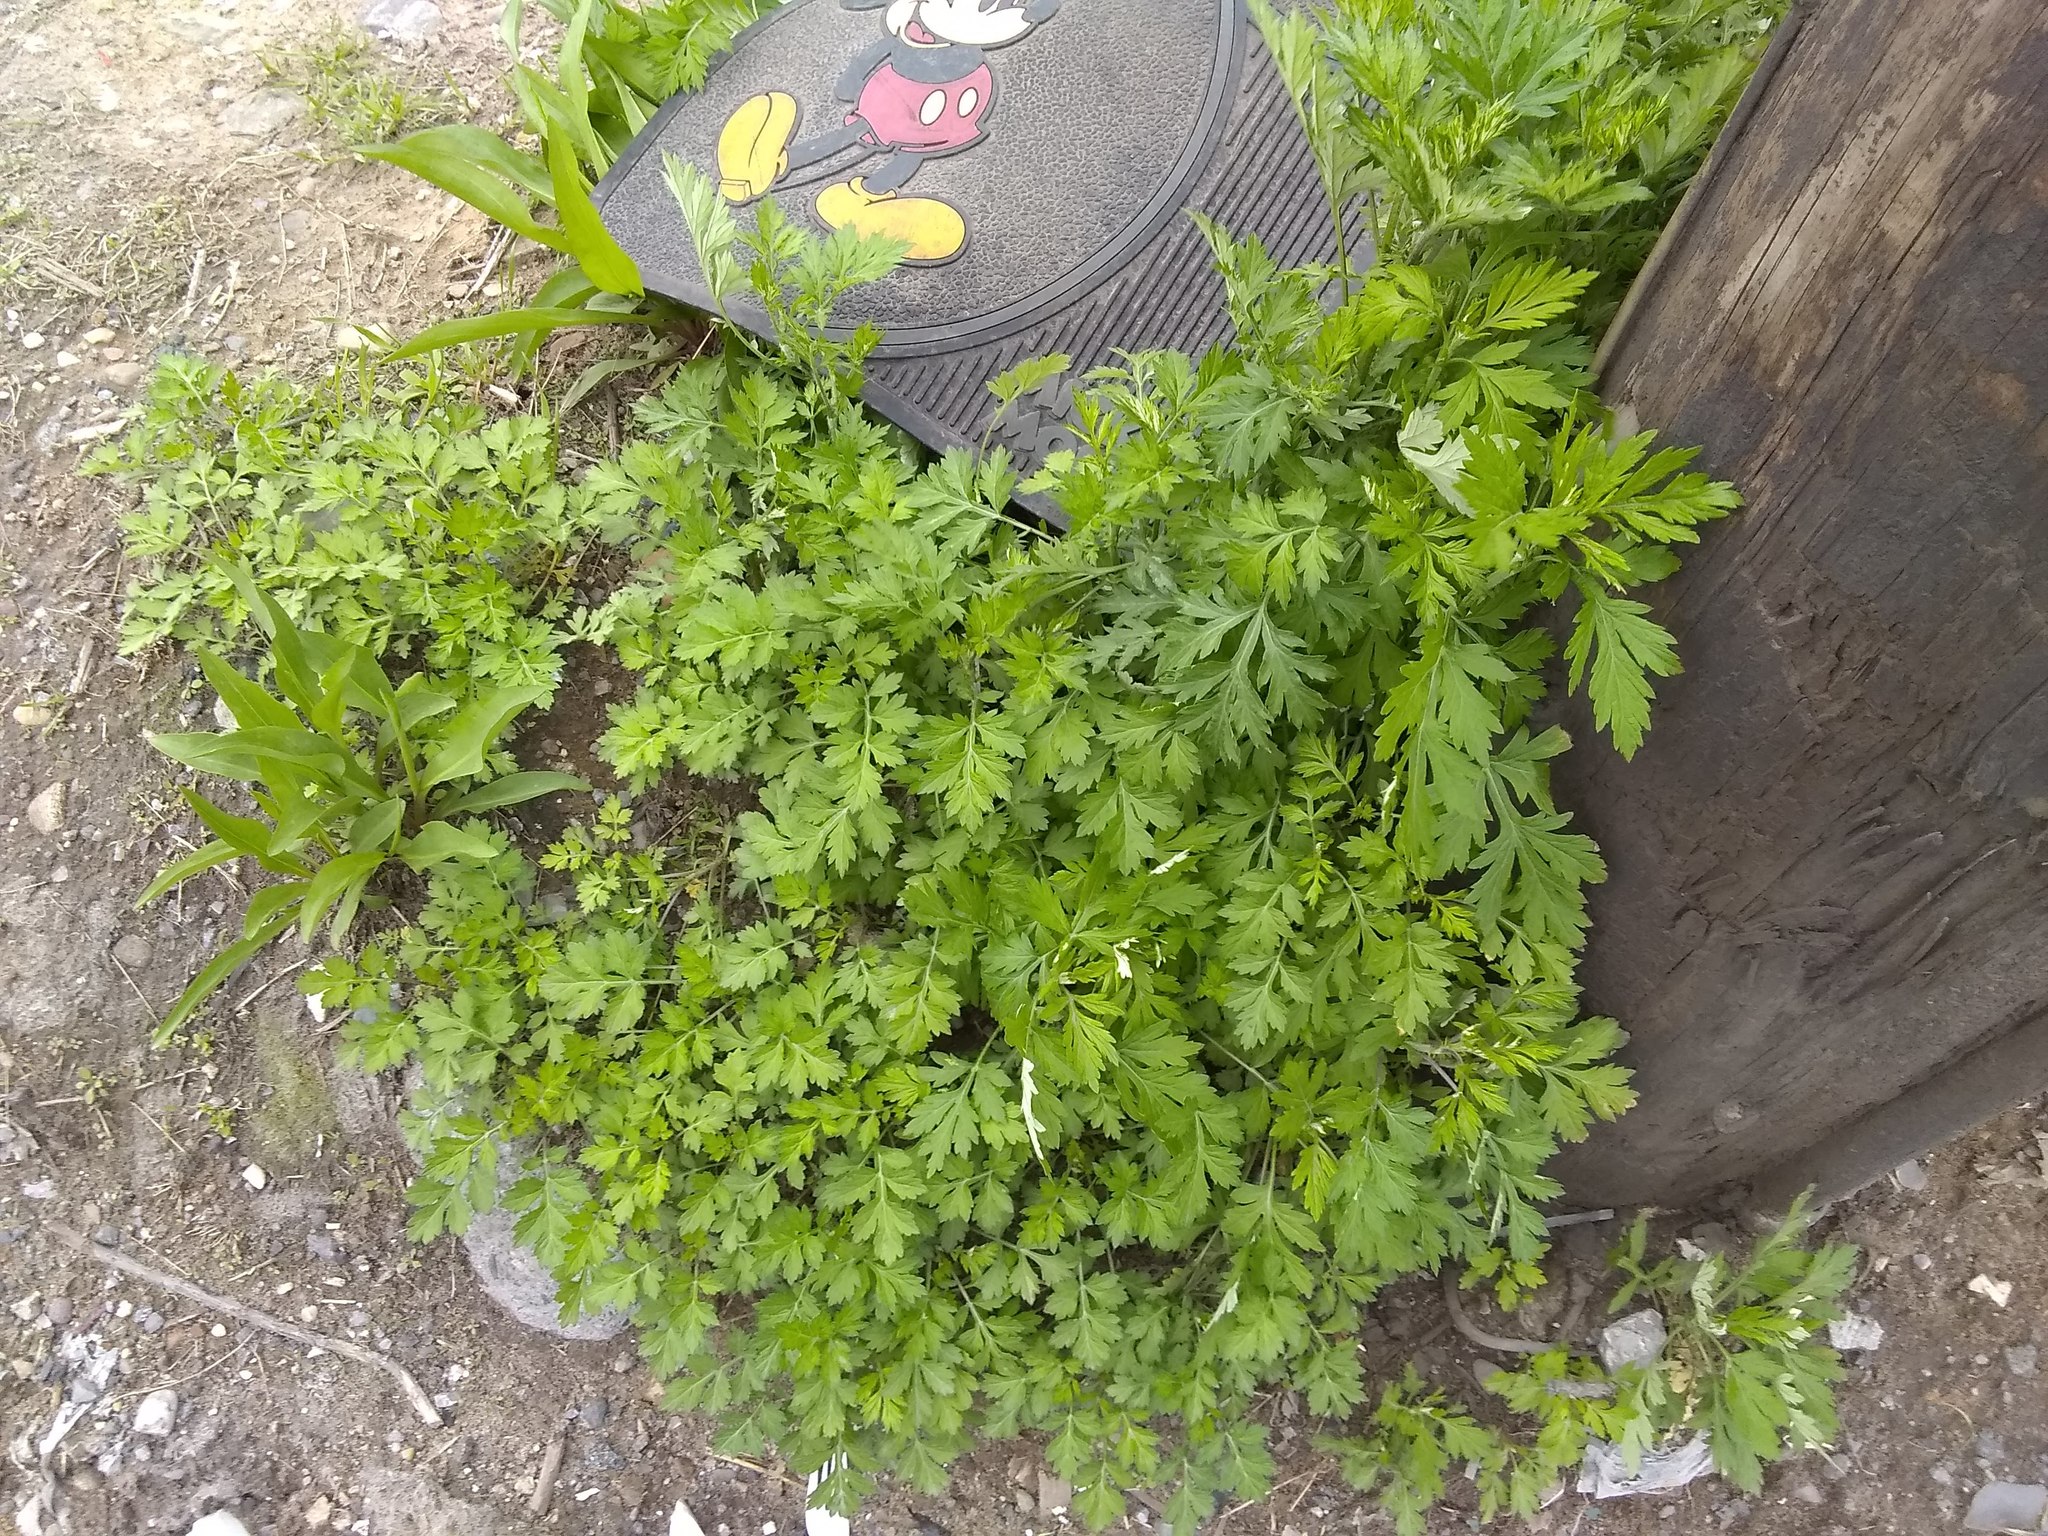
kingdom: Plantae
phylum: Tracheophyta
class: Magnoliopsida
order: Asterales
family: Asteraceae
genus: Artemisia
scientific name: Artemisia vulgaris
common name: Mugwort
